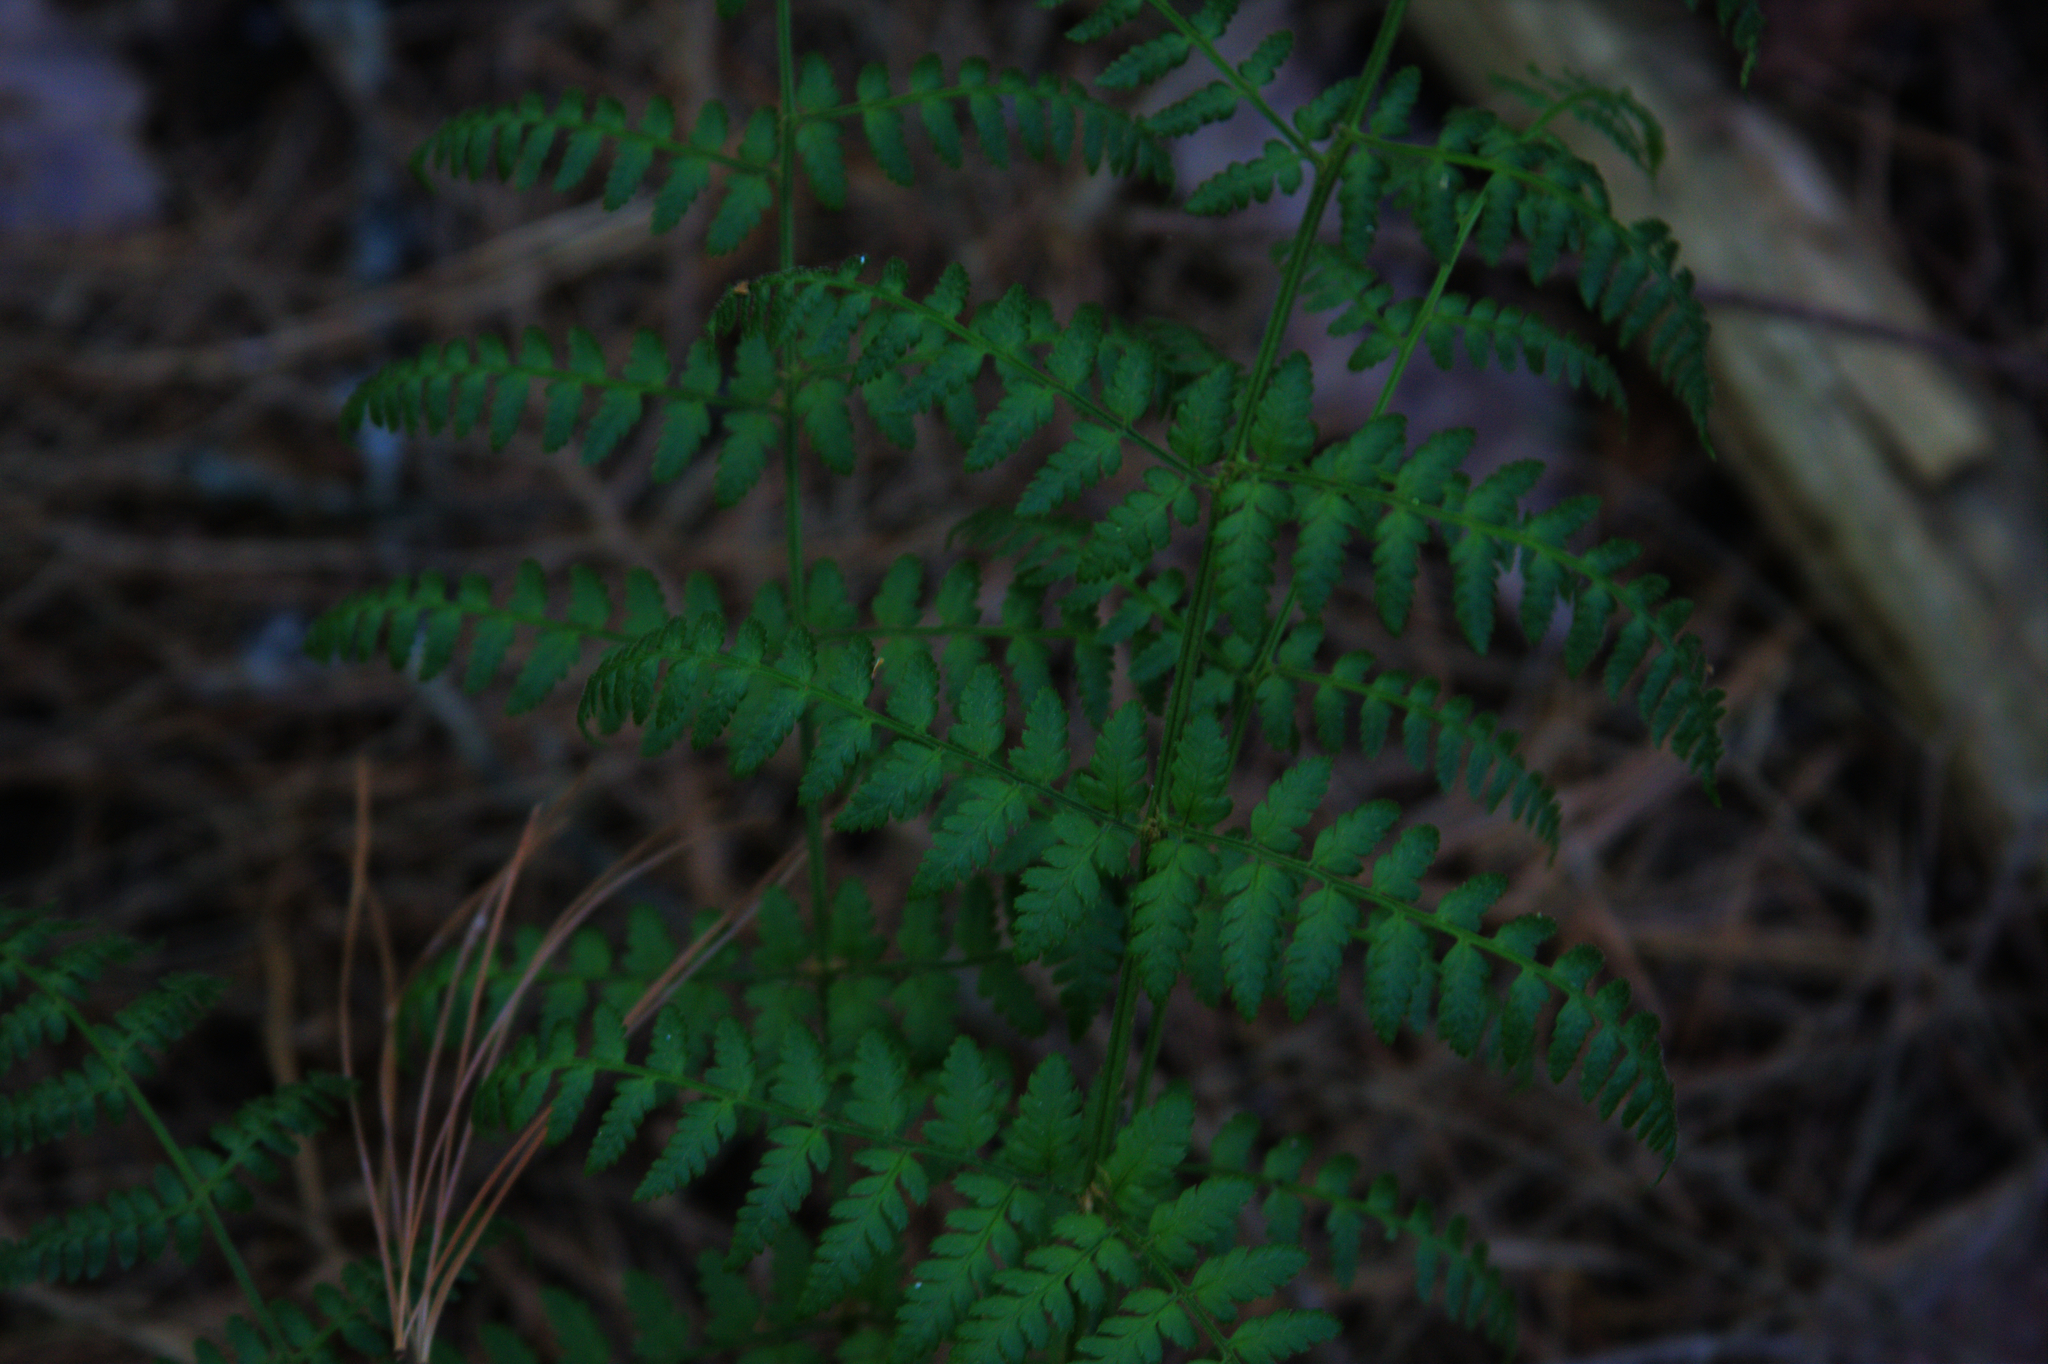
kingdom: Plantae
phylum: Tracheophyta
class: Polypodiopsida
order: Polypodiales
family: Dryopteridaceae
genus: Dryopteris
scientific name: Dryopteris intermedia
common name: Evergreen wood fern
